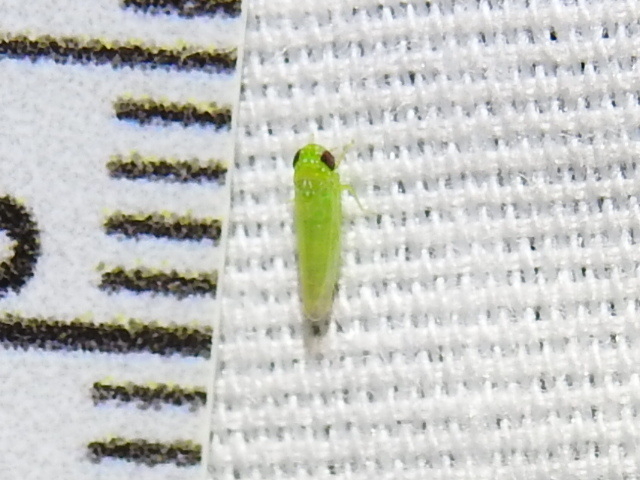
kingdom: Animalia
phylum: Arthropoda
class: Insecta
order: Hemiptera
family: Cicadellidae
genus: Empoasca
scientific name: Empoasca fabae
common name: Potato leafhopper
